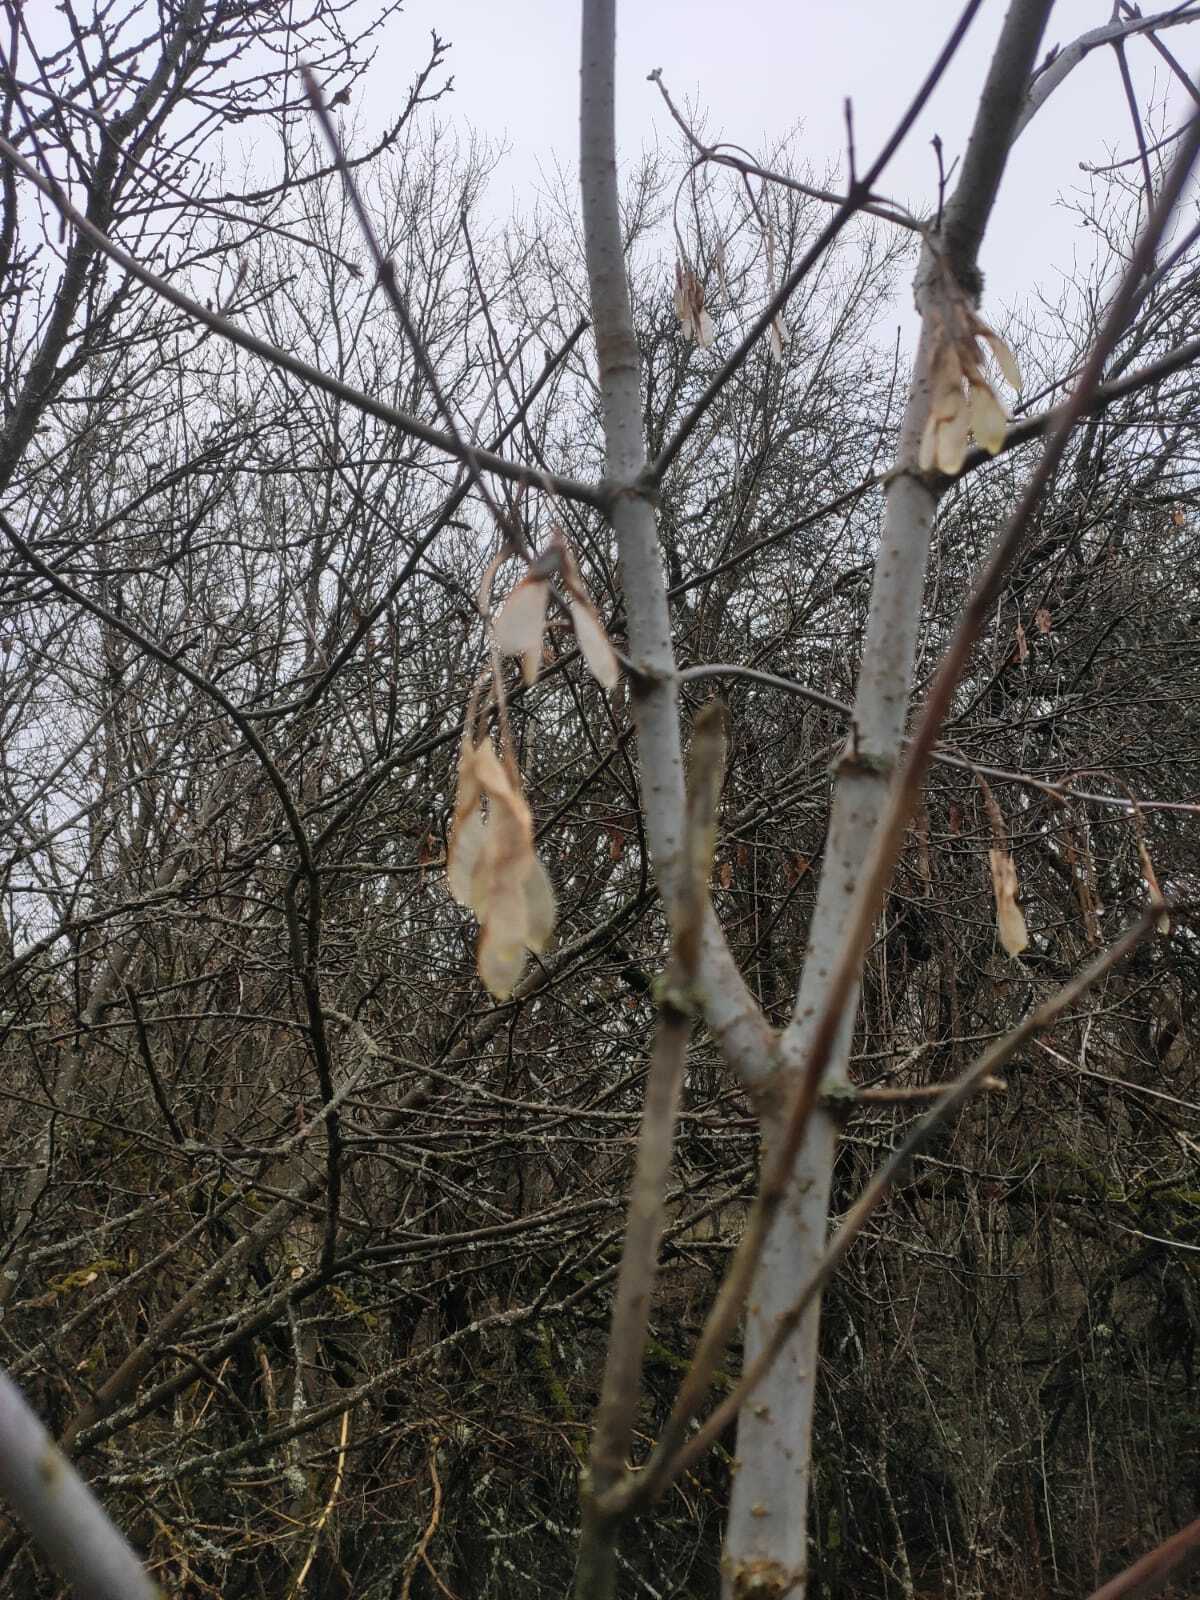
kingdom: Plantae
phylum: Tracheophyta
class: Magnoliopsida
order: Sapindales
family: Sapindaceae
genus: Acer
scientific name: Acer negundo
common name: Ashleaf maple
